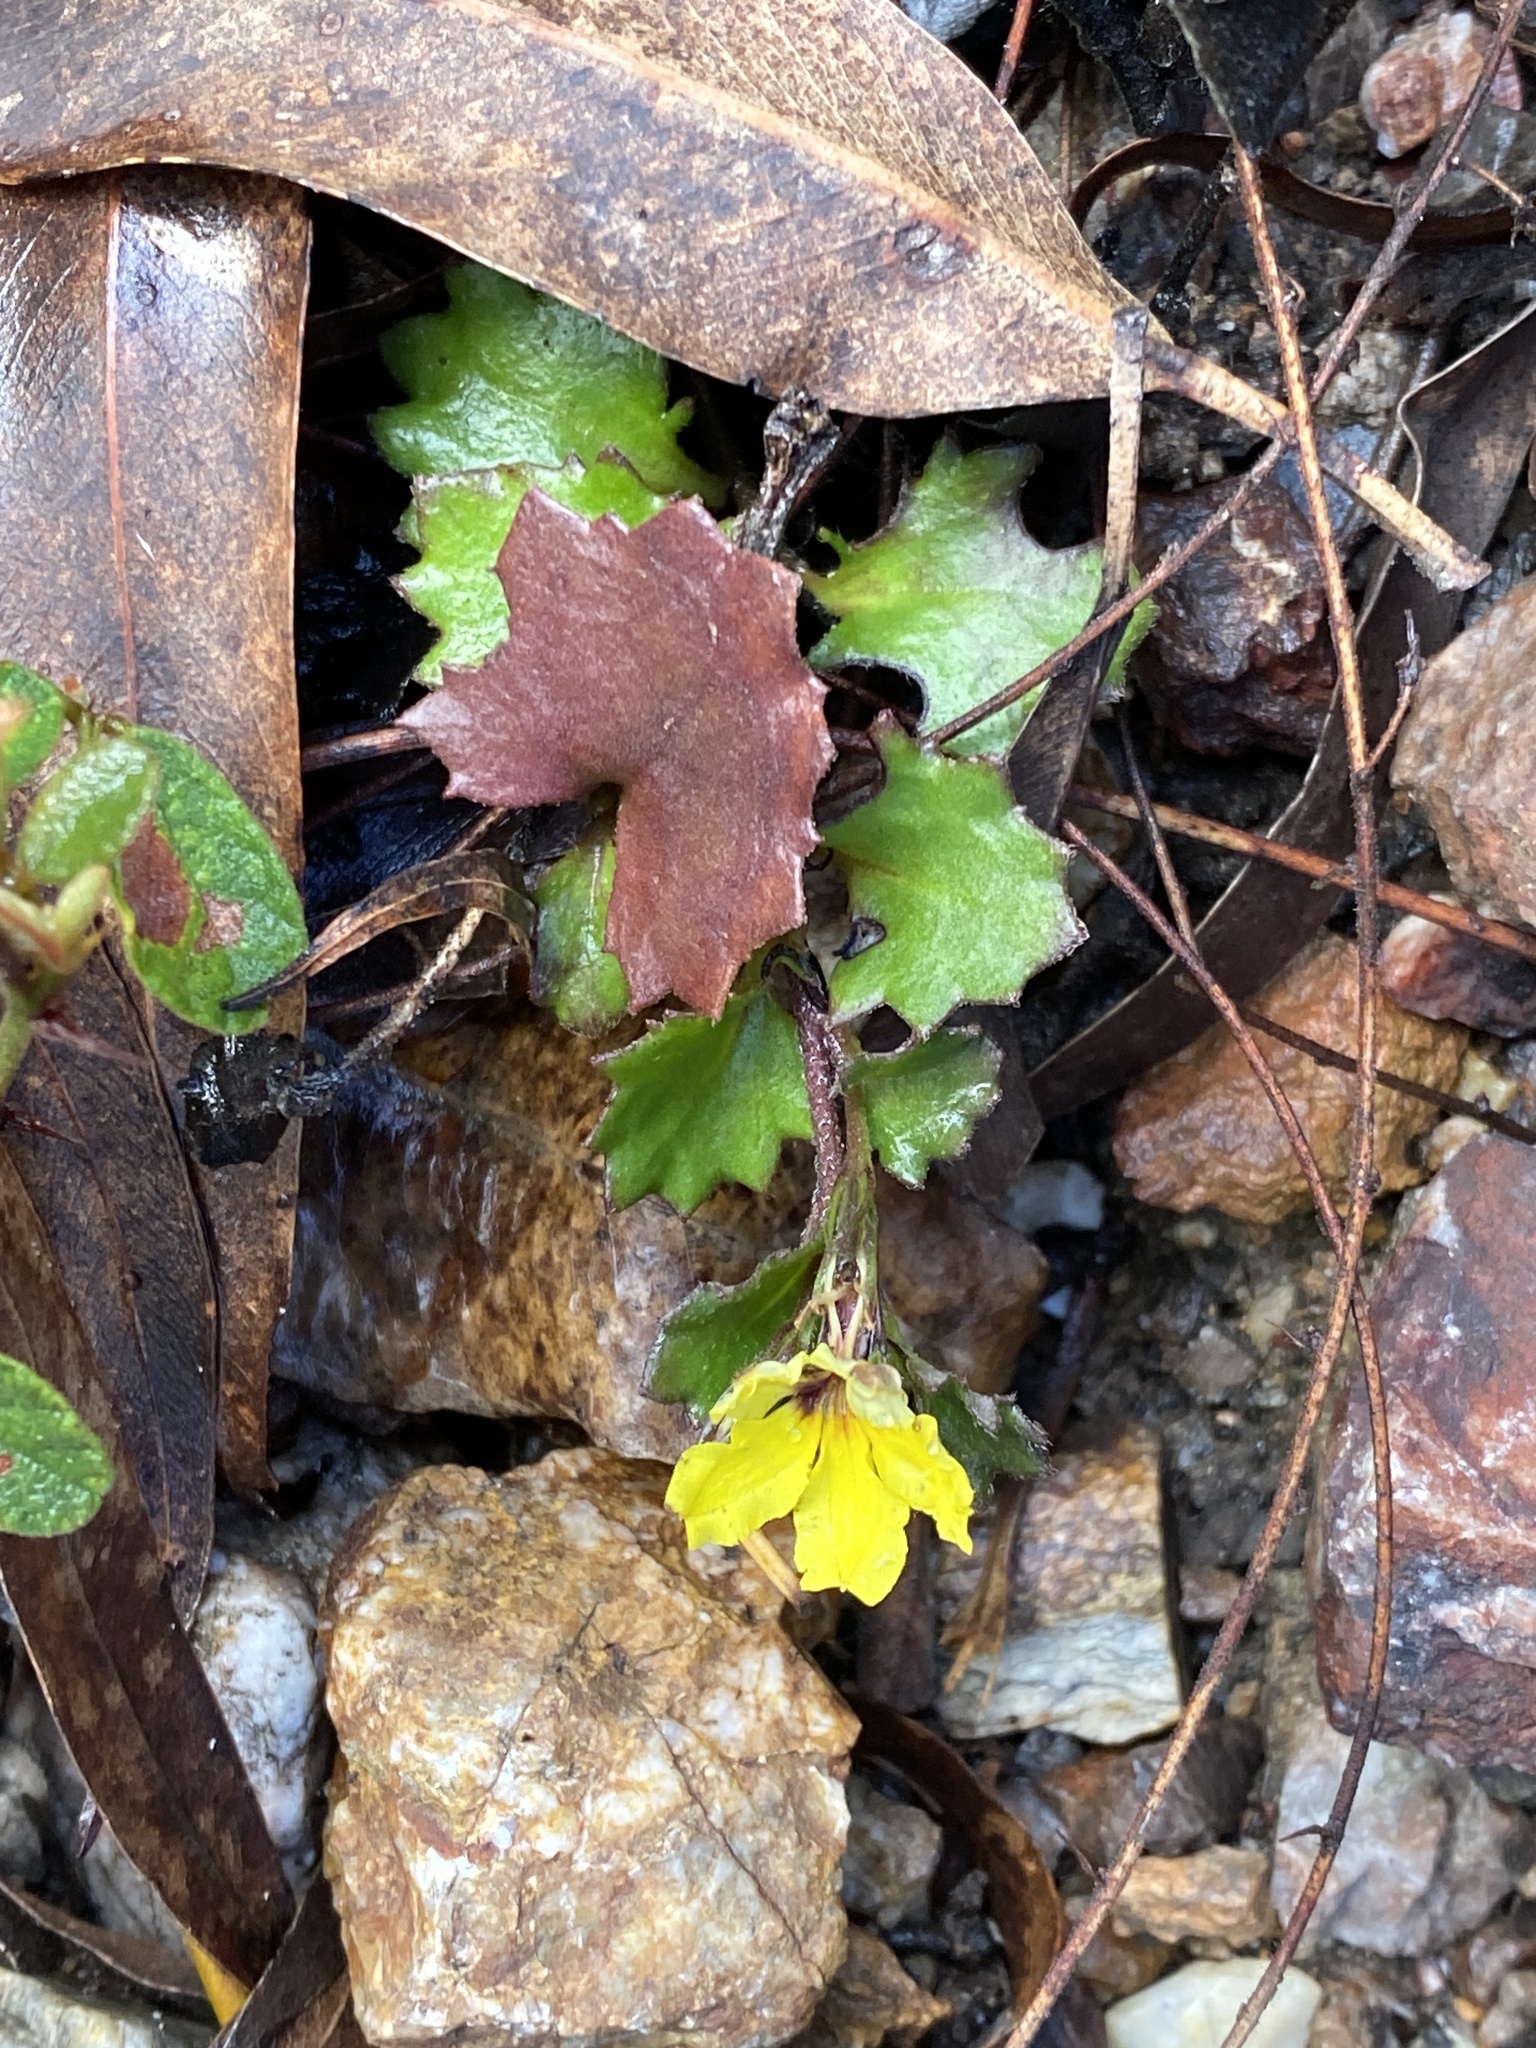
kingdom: Plantae
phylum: Tracheophyta
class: Magnoliopsida
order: Asterales
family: Goodeniaceae
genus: Goodenia
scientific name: Goodenia rotundifolia
